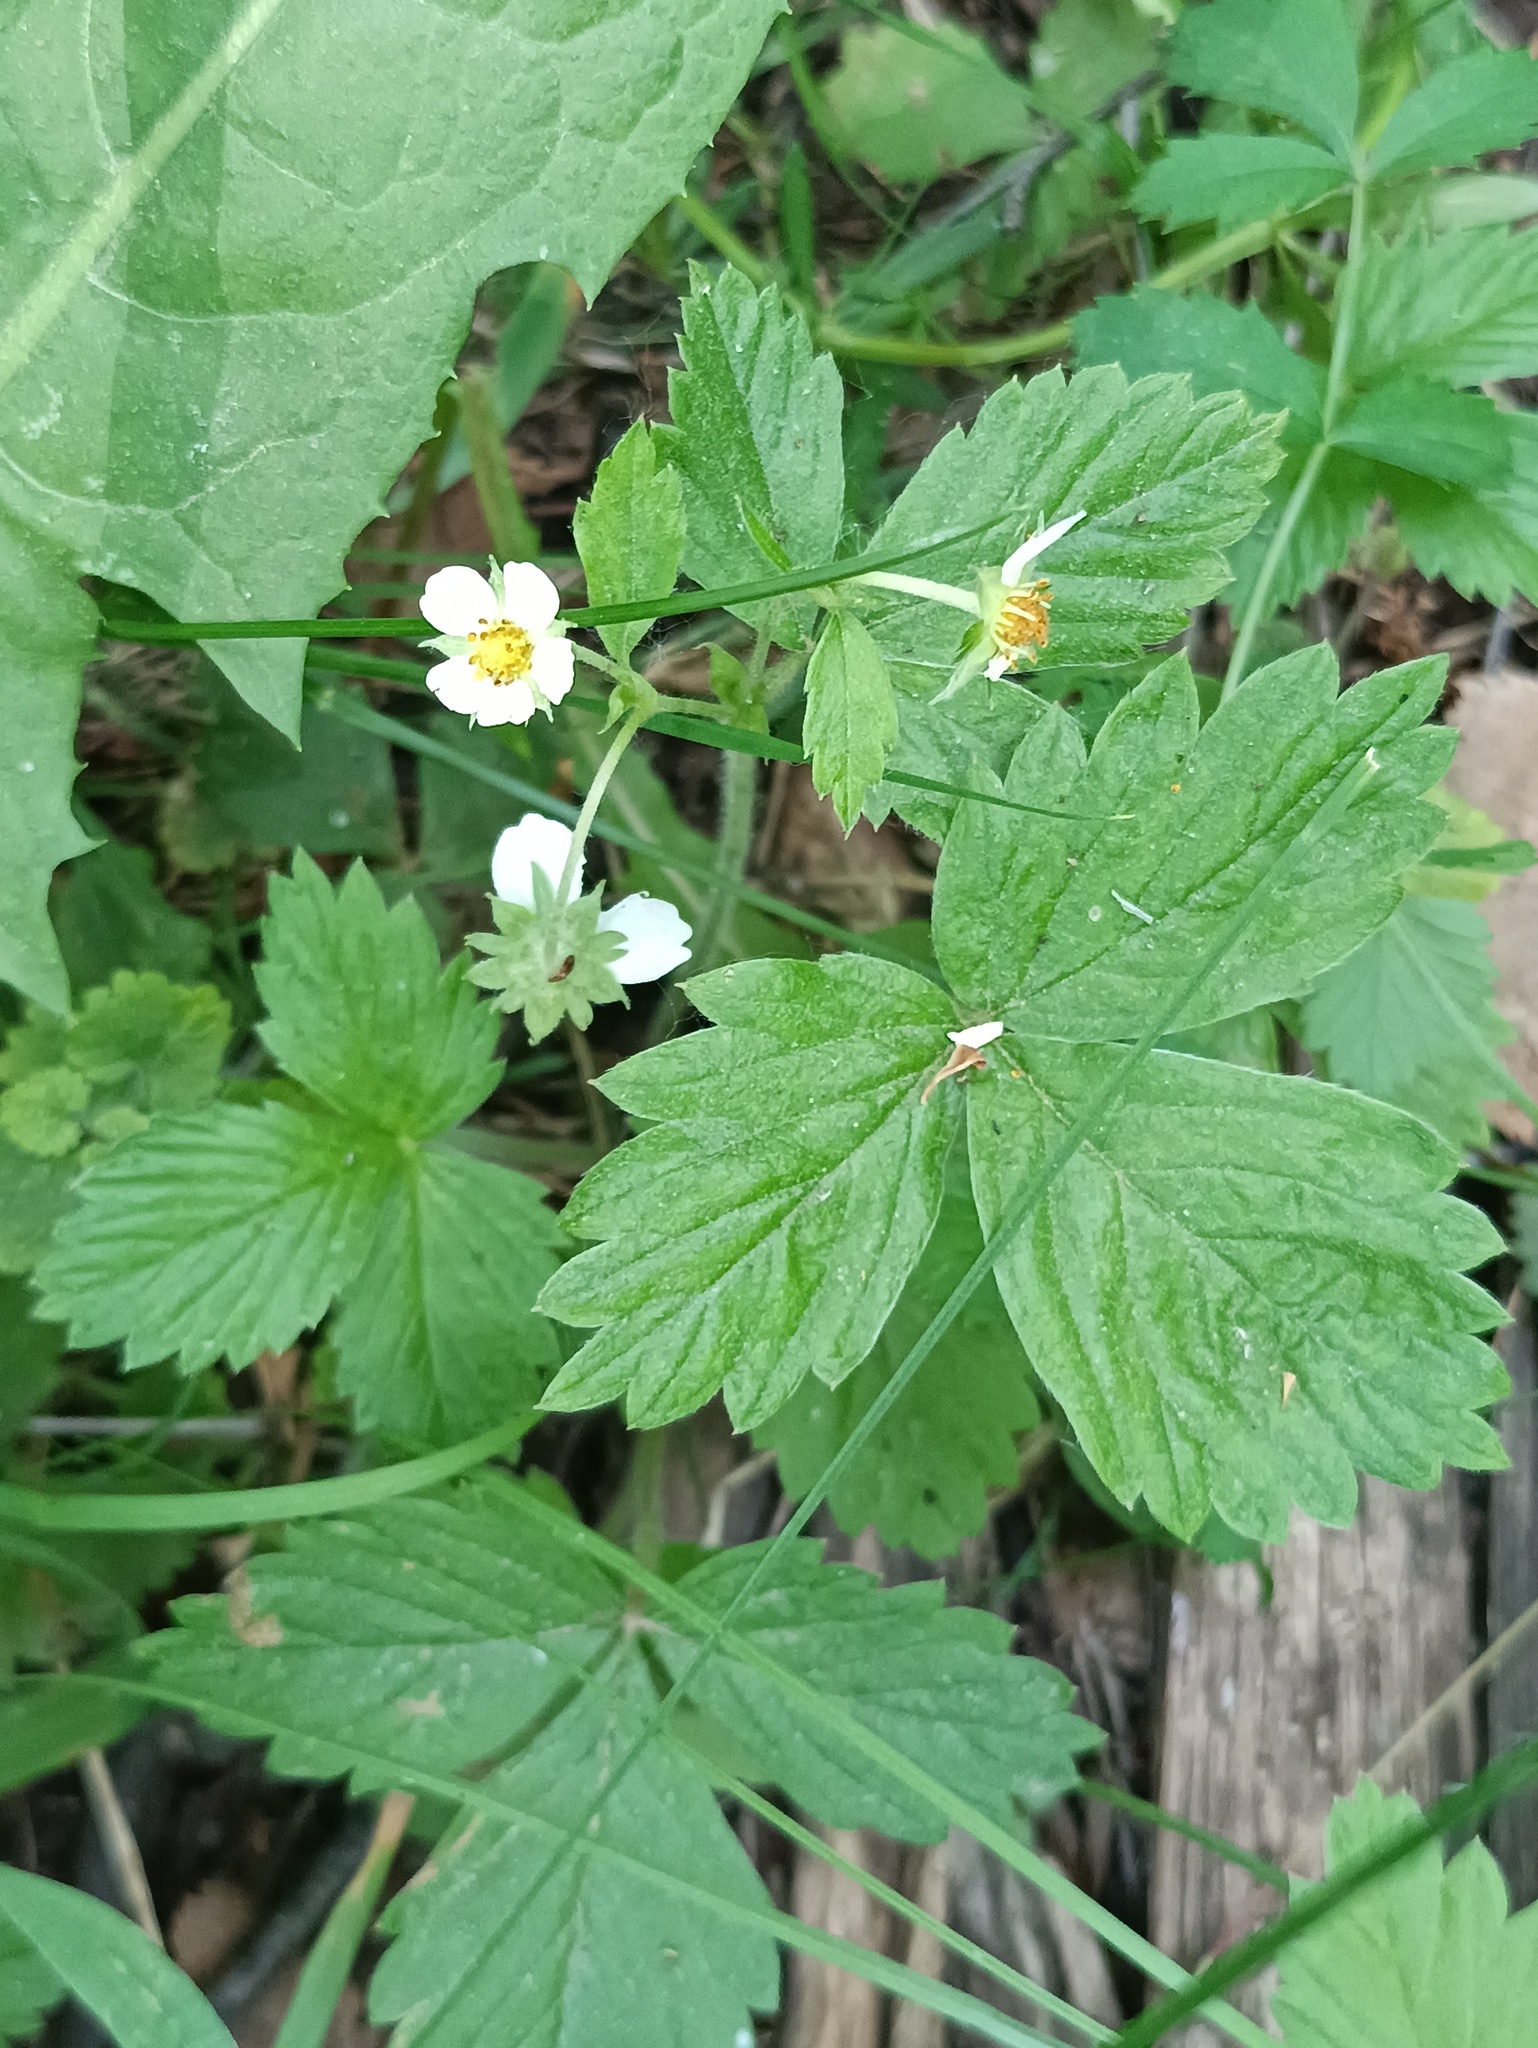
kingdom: Plantae
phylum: Tracheophyta
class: Magnoliopsida
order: Rosales
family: Rosaceae
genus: Fragaria
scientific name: Fragaria vesca
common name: Wild strawberry
